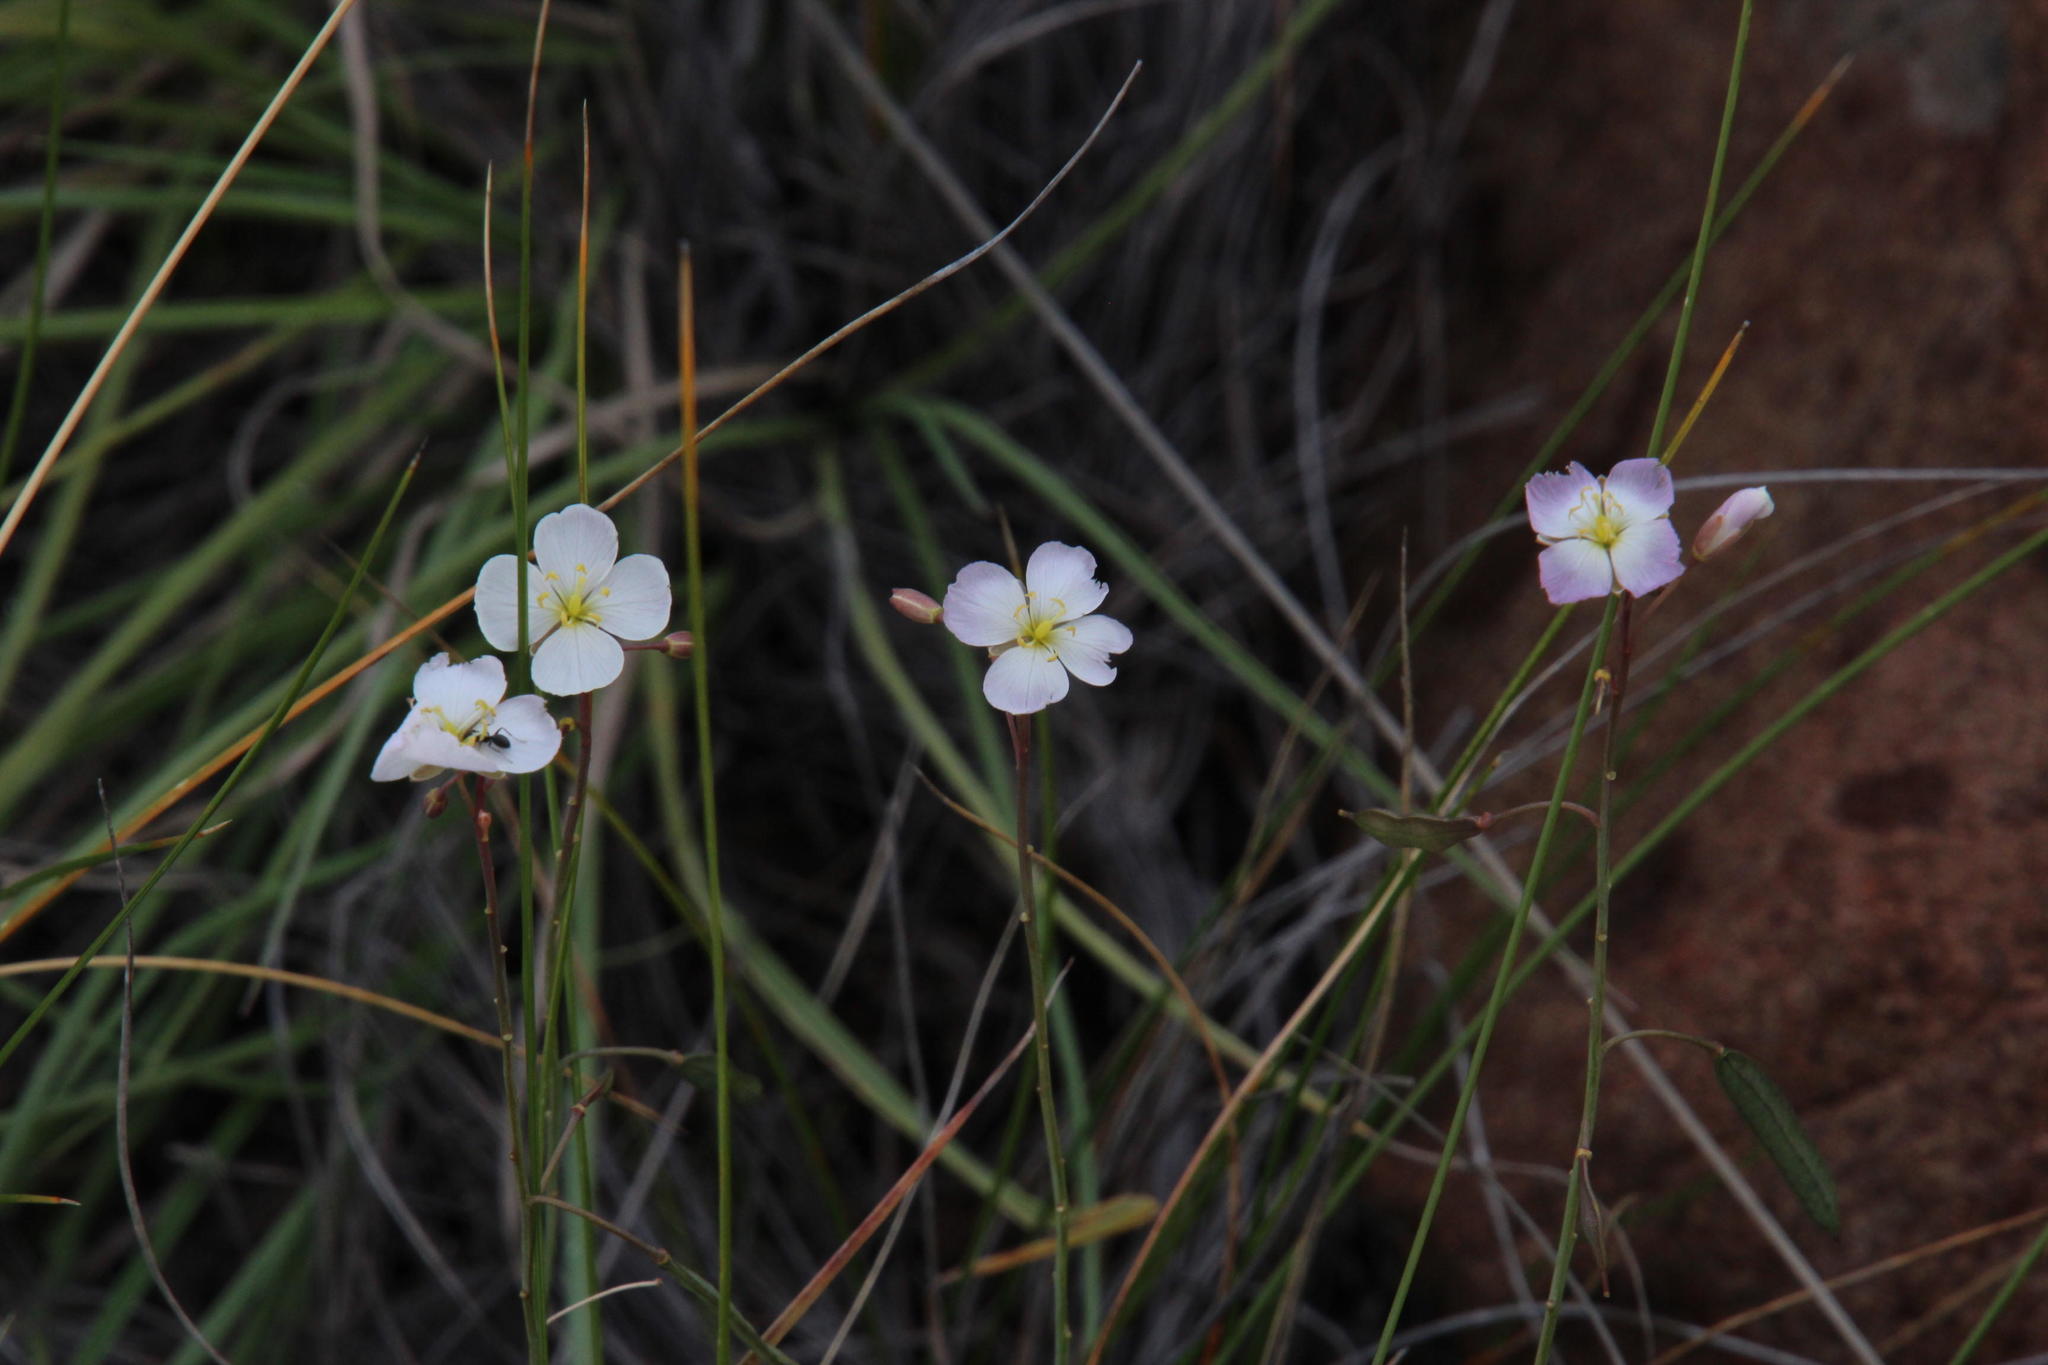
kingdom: Plantae
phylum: Tracheophyta
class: Magnoliopsida
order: Brassicales
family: Brassicaceae
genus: Heliophila
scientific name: Heliophila carnosa
